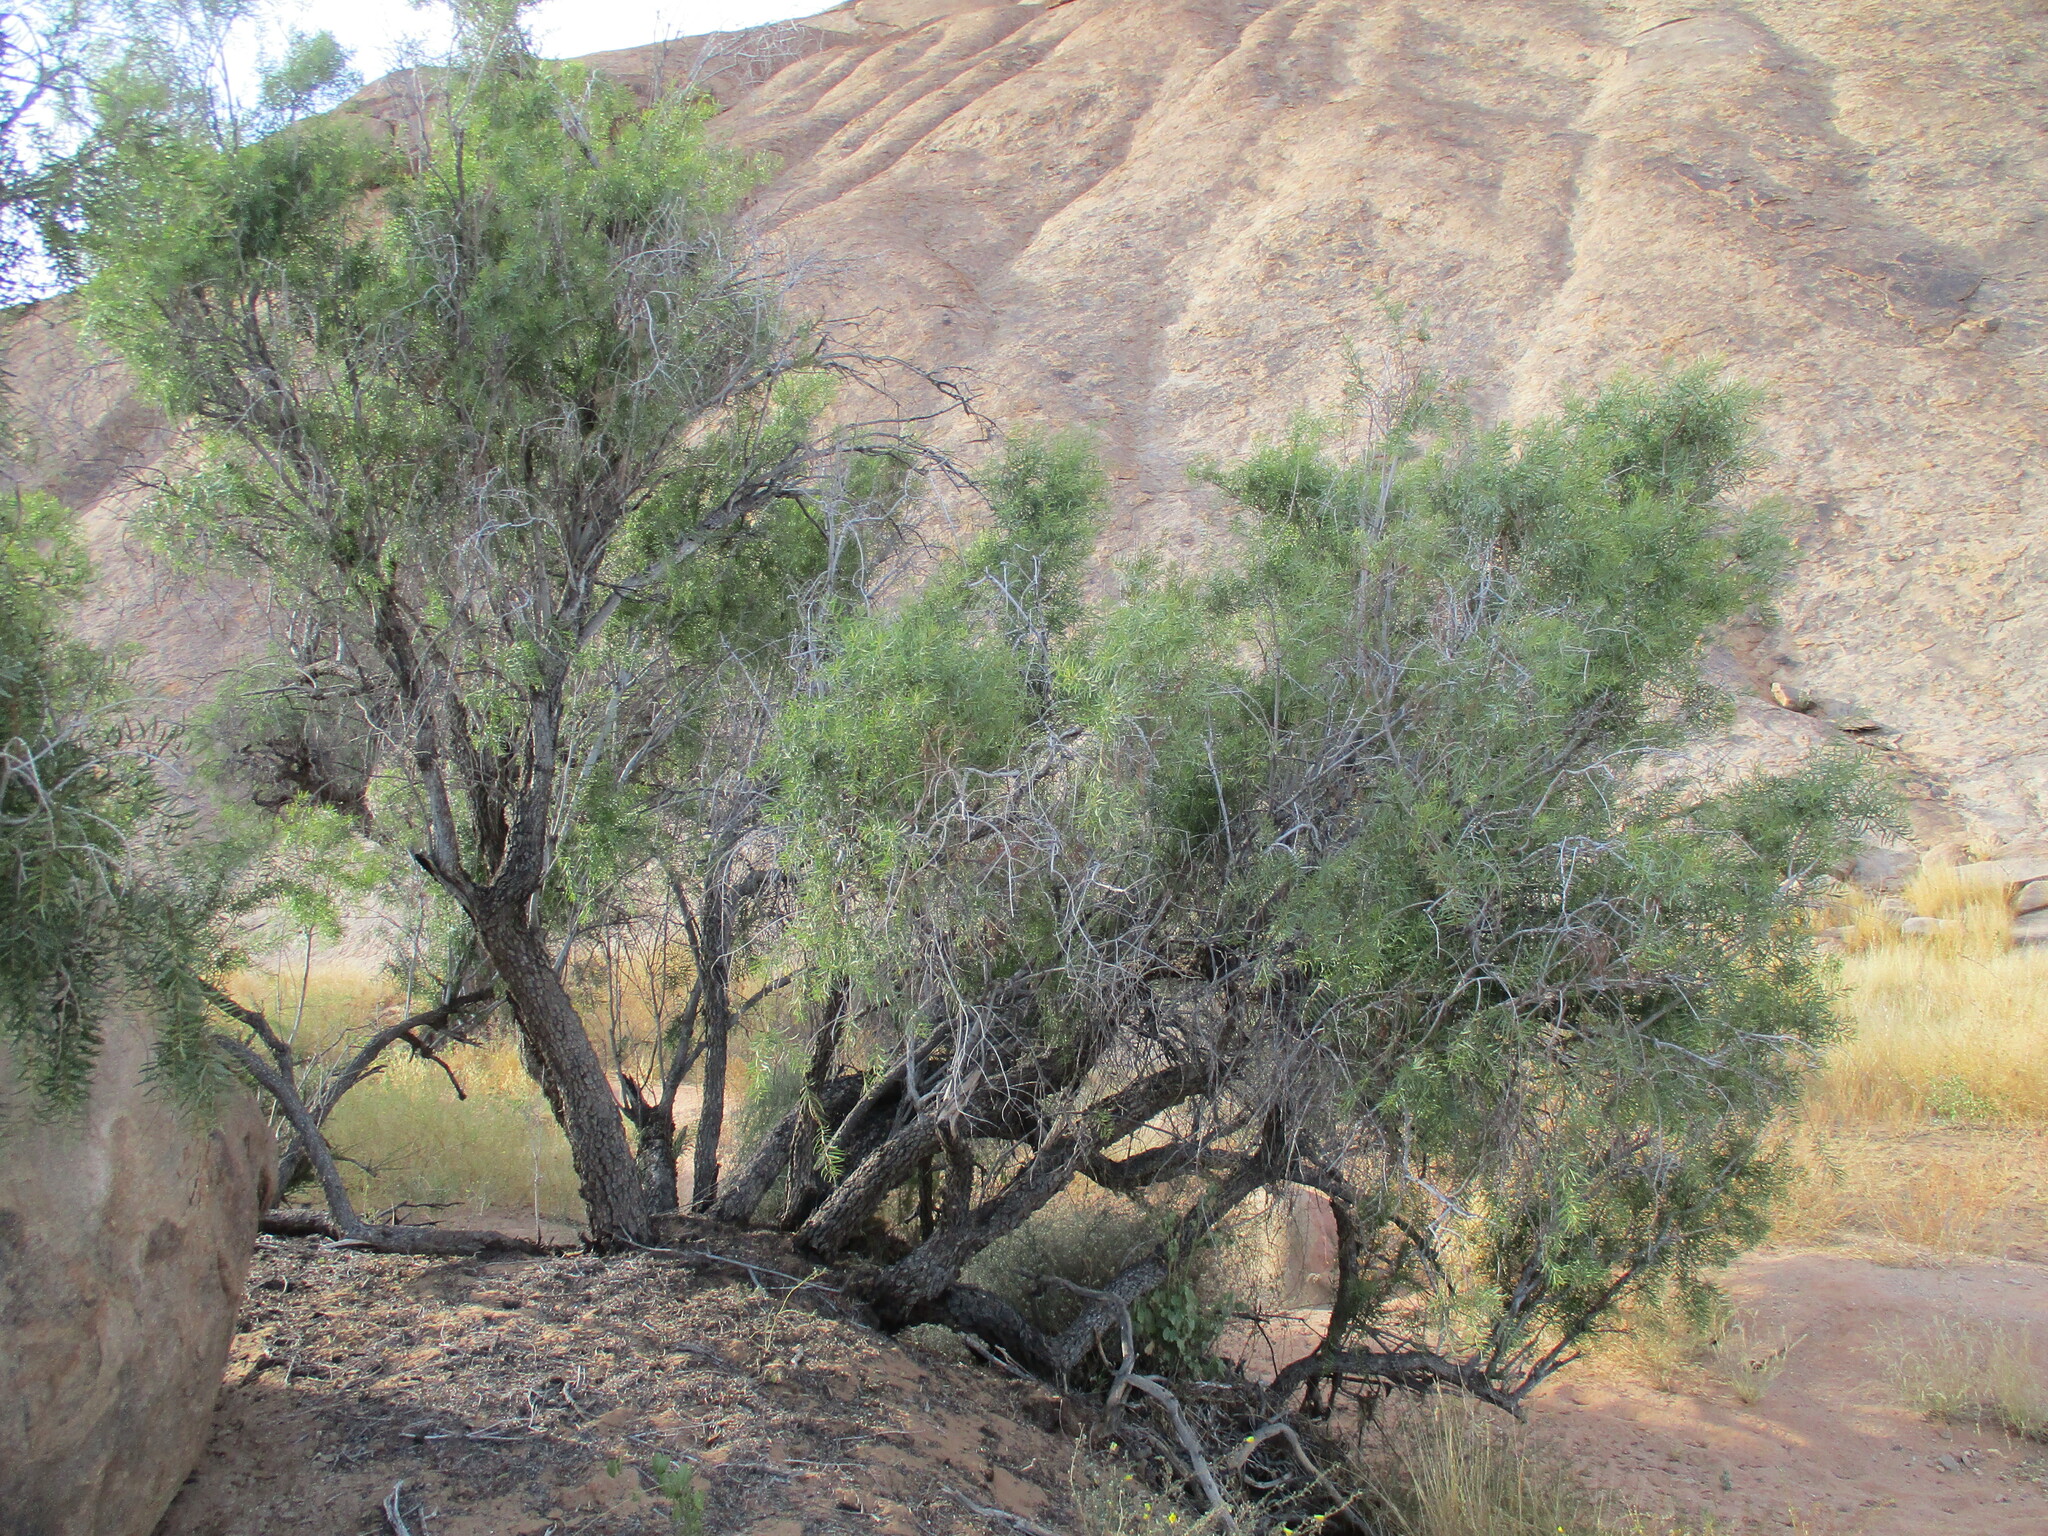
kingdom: Plantae
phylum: Tracheophyta
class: Magnoliopsida
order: Ericales
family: Ebenaceae
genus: Euclea
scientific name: Euclea pseudebenus
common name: Black ebony
